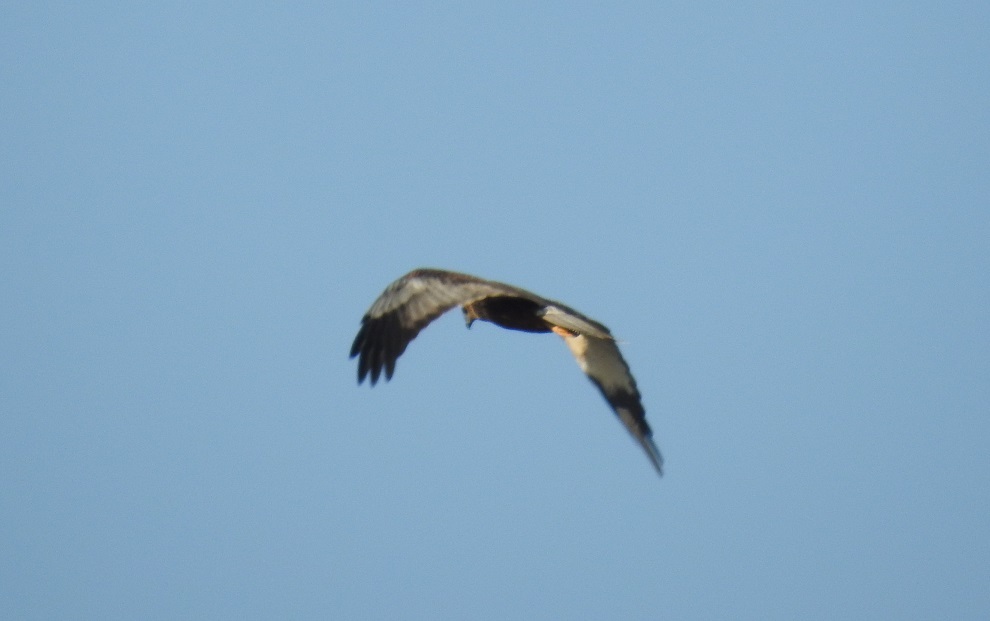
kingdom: Animalia
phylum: Chordata
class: Aves
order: Accipitriformes
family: Accipitridae
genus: Circus
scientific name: Circus aeruginosus
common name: Western marsh harrier
